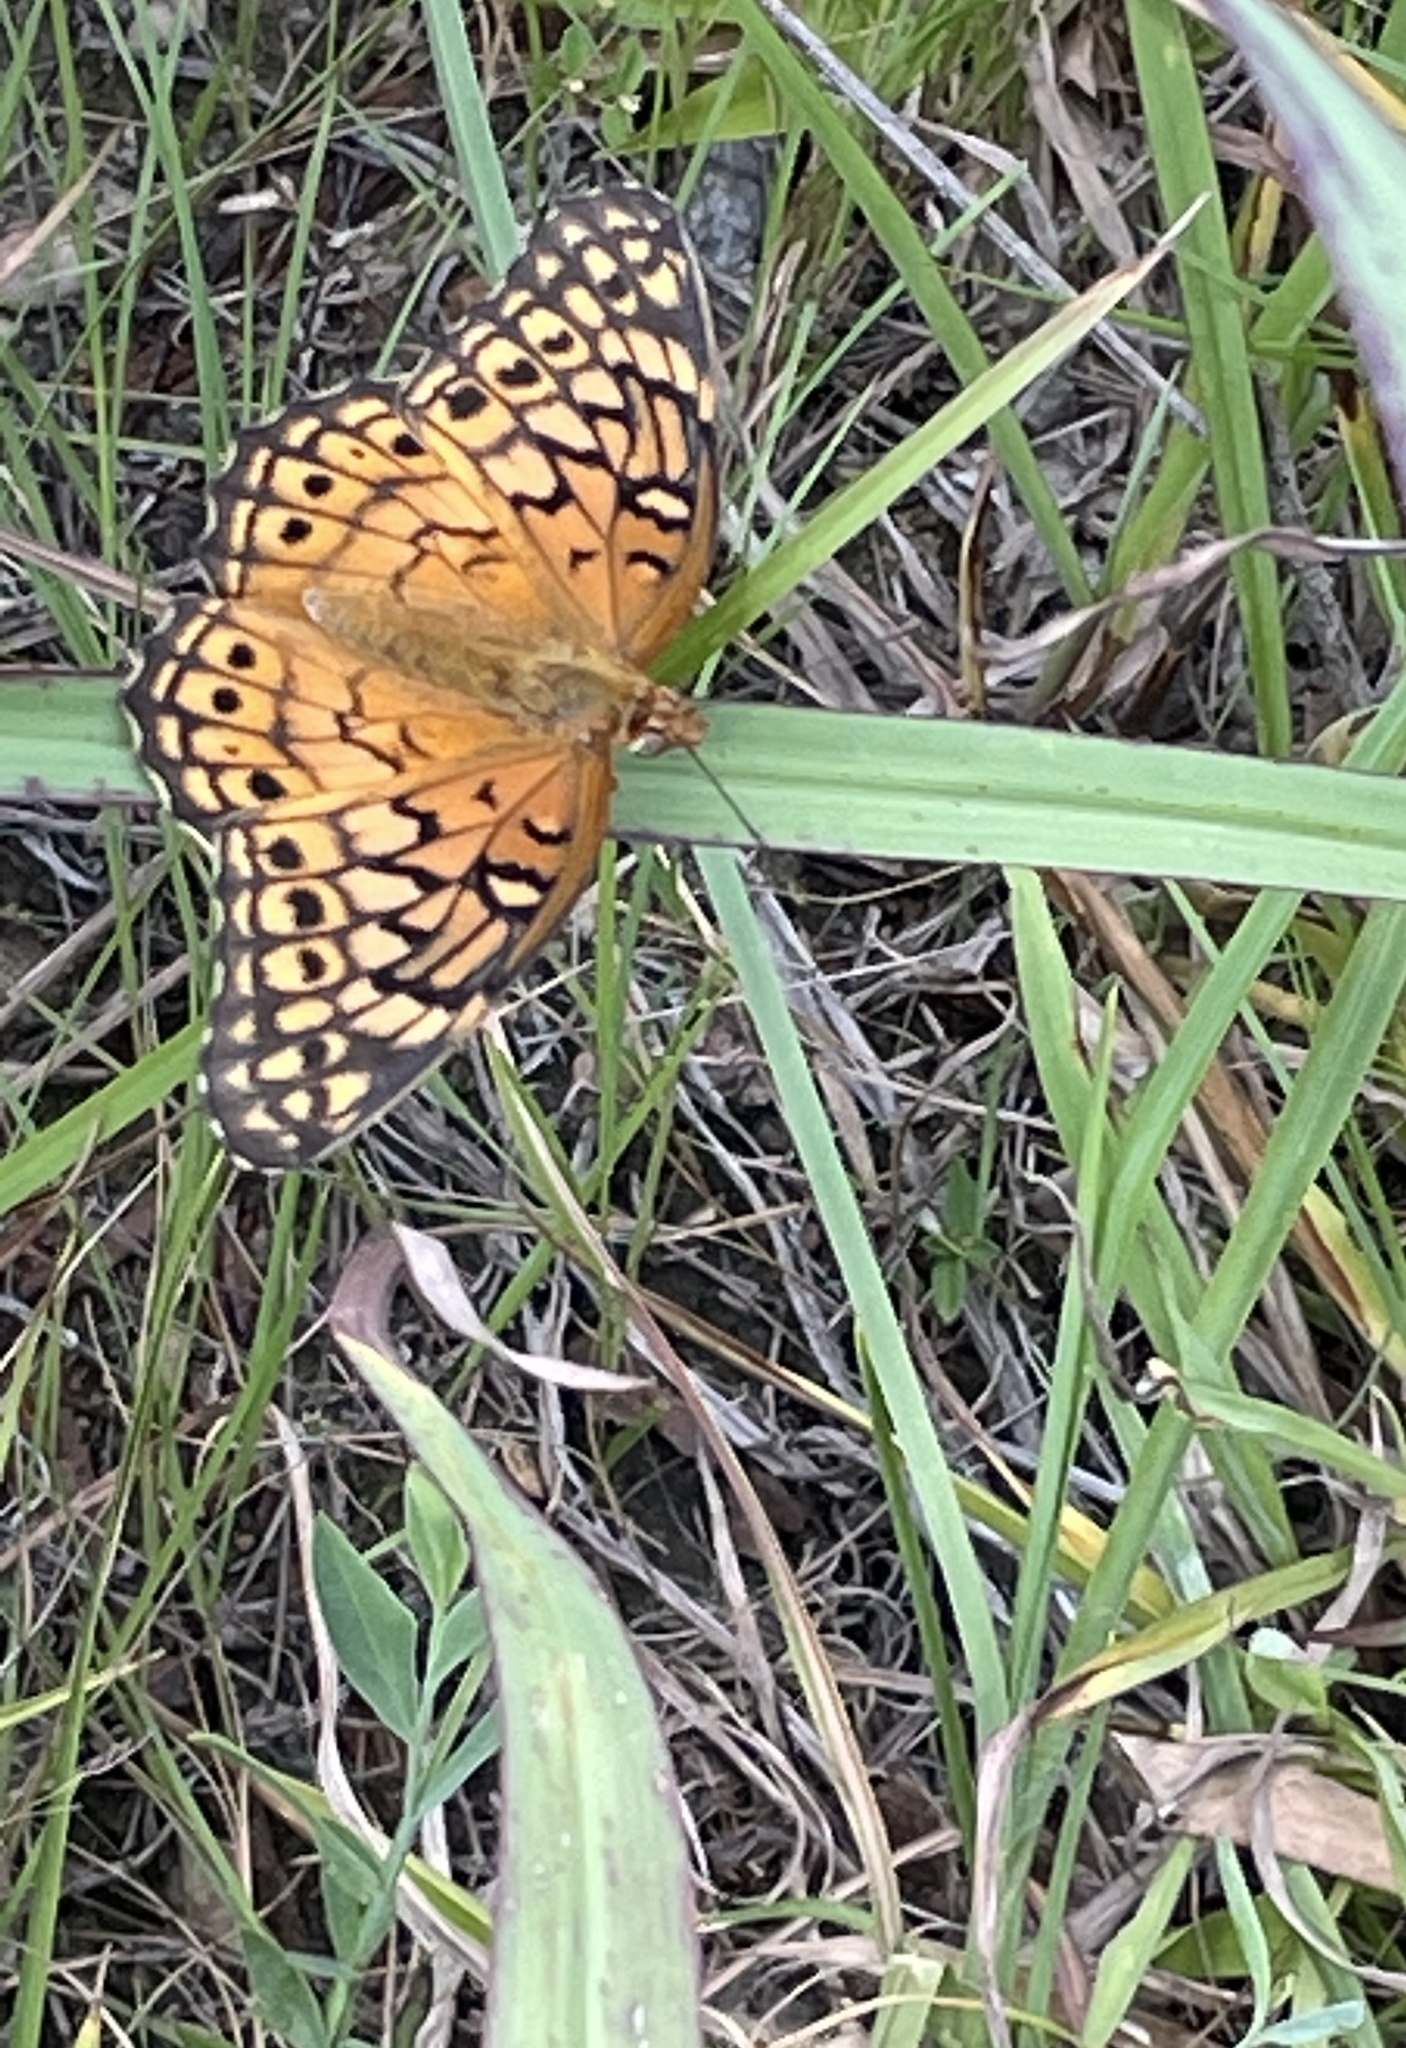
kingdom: Animalia
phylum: Arthropoda
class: Insecta
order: Lepidoptera
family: Nymphalidae
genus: Euptoieta
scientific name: Euptoieta claudia
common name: Variegated fritillary
